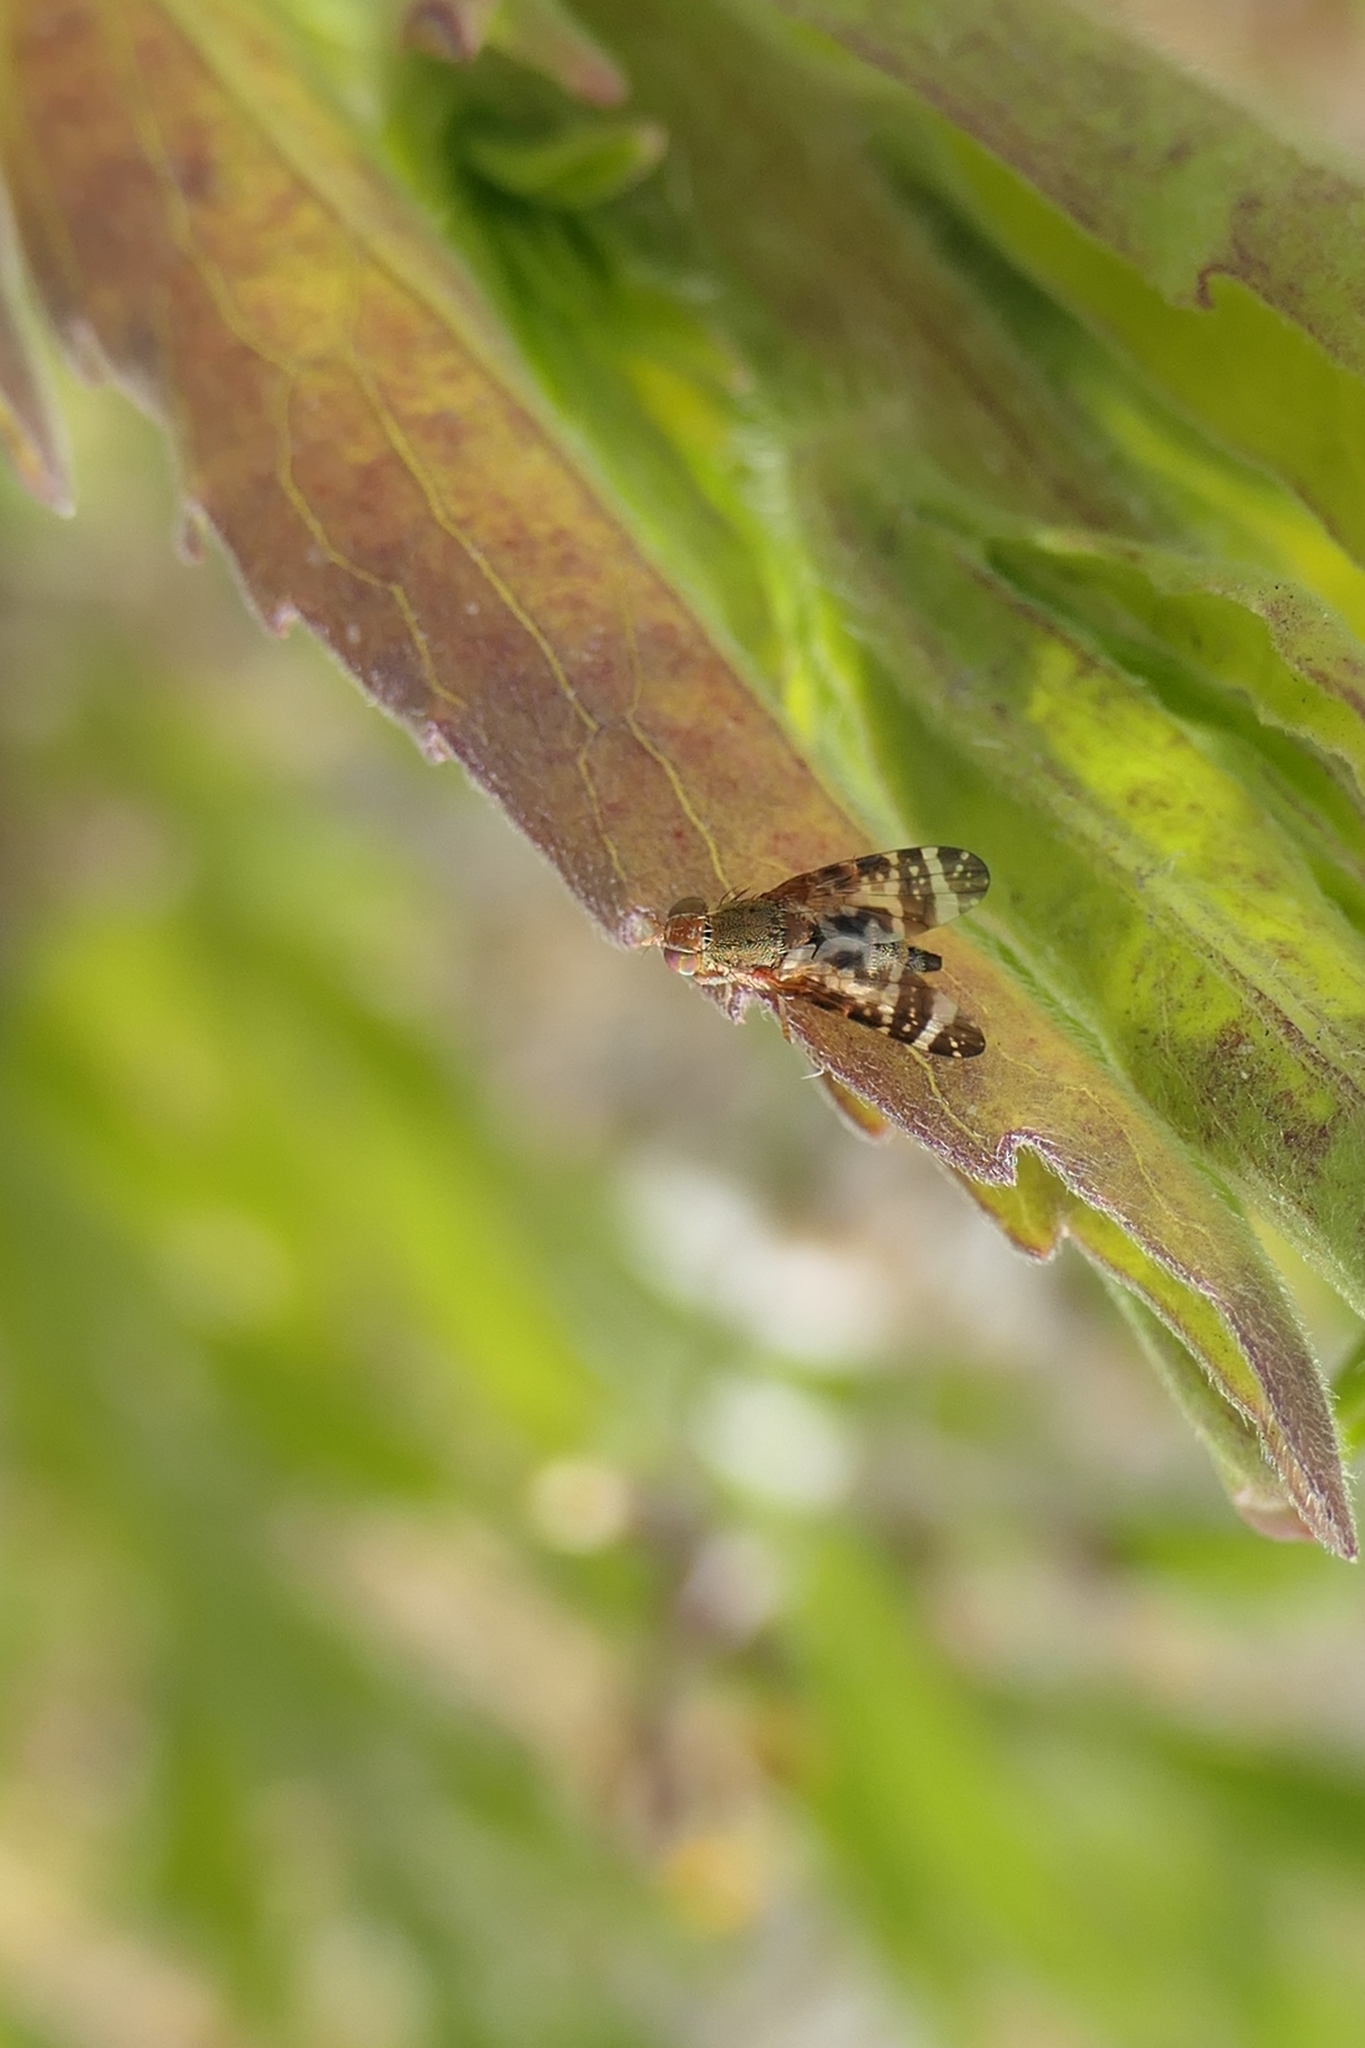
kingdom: Animalia
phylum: Arthropoda
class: Insecta
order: Diptera
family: Tephritidae
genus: Sphenella
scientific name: Sphenella
